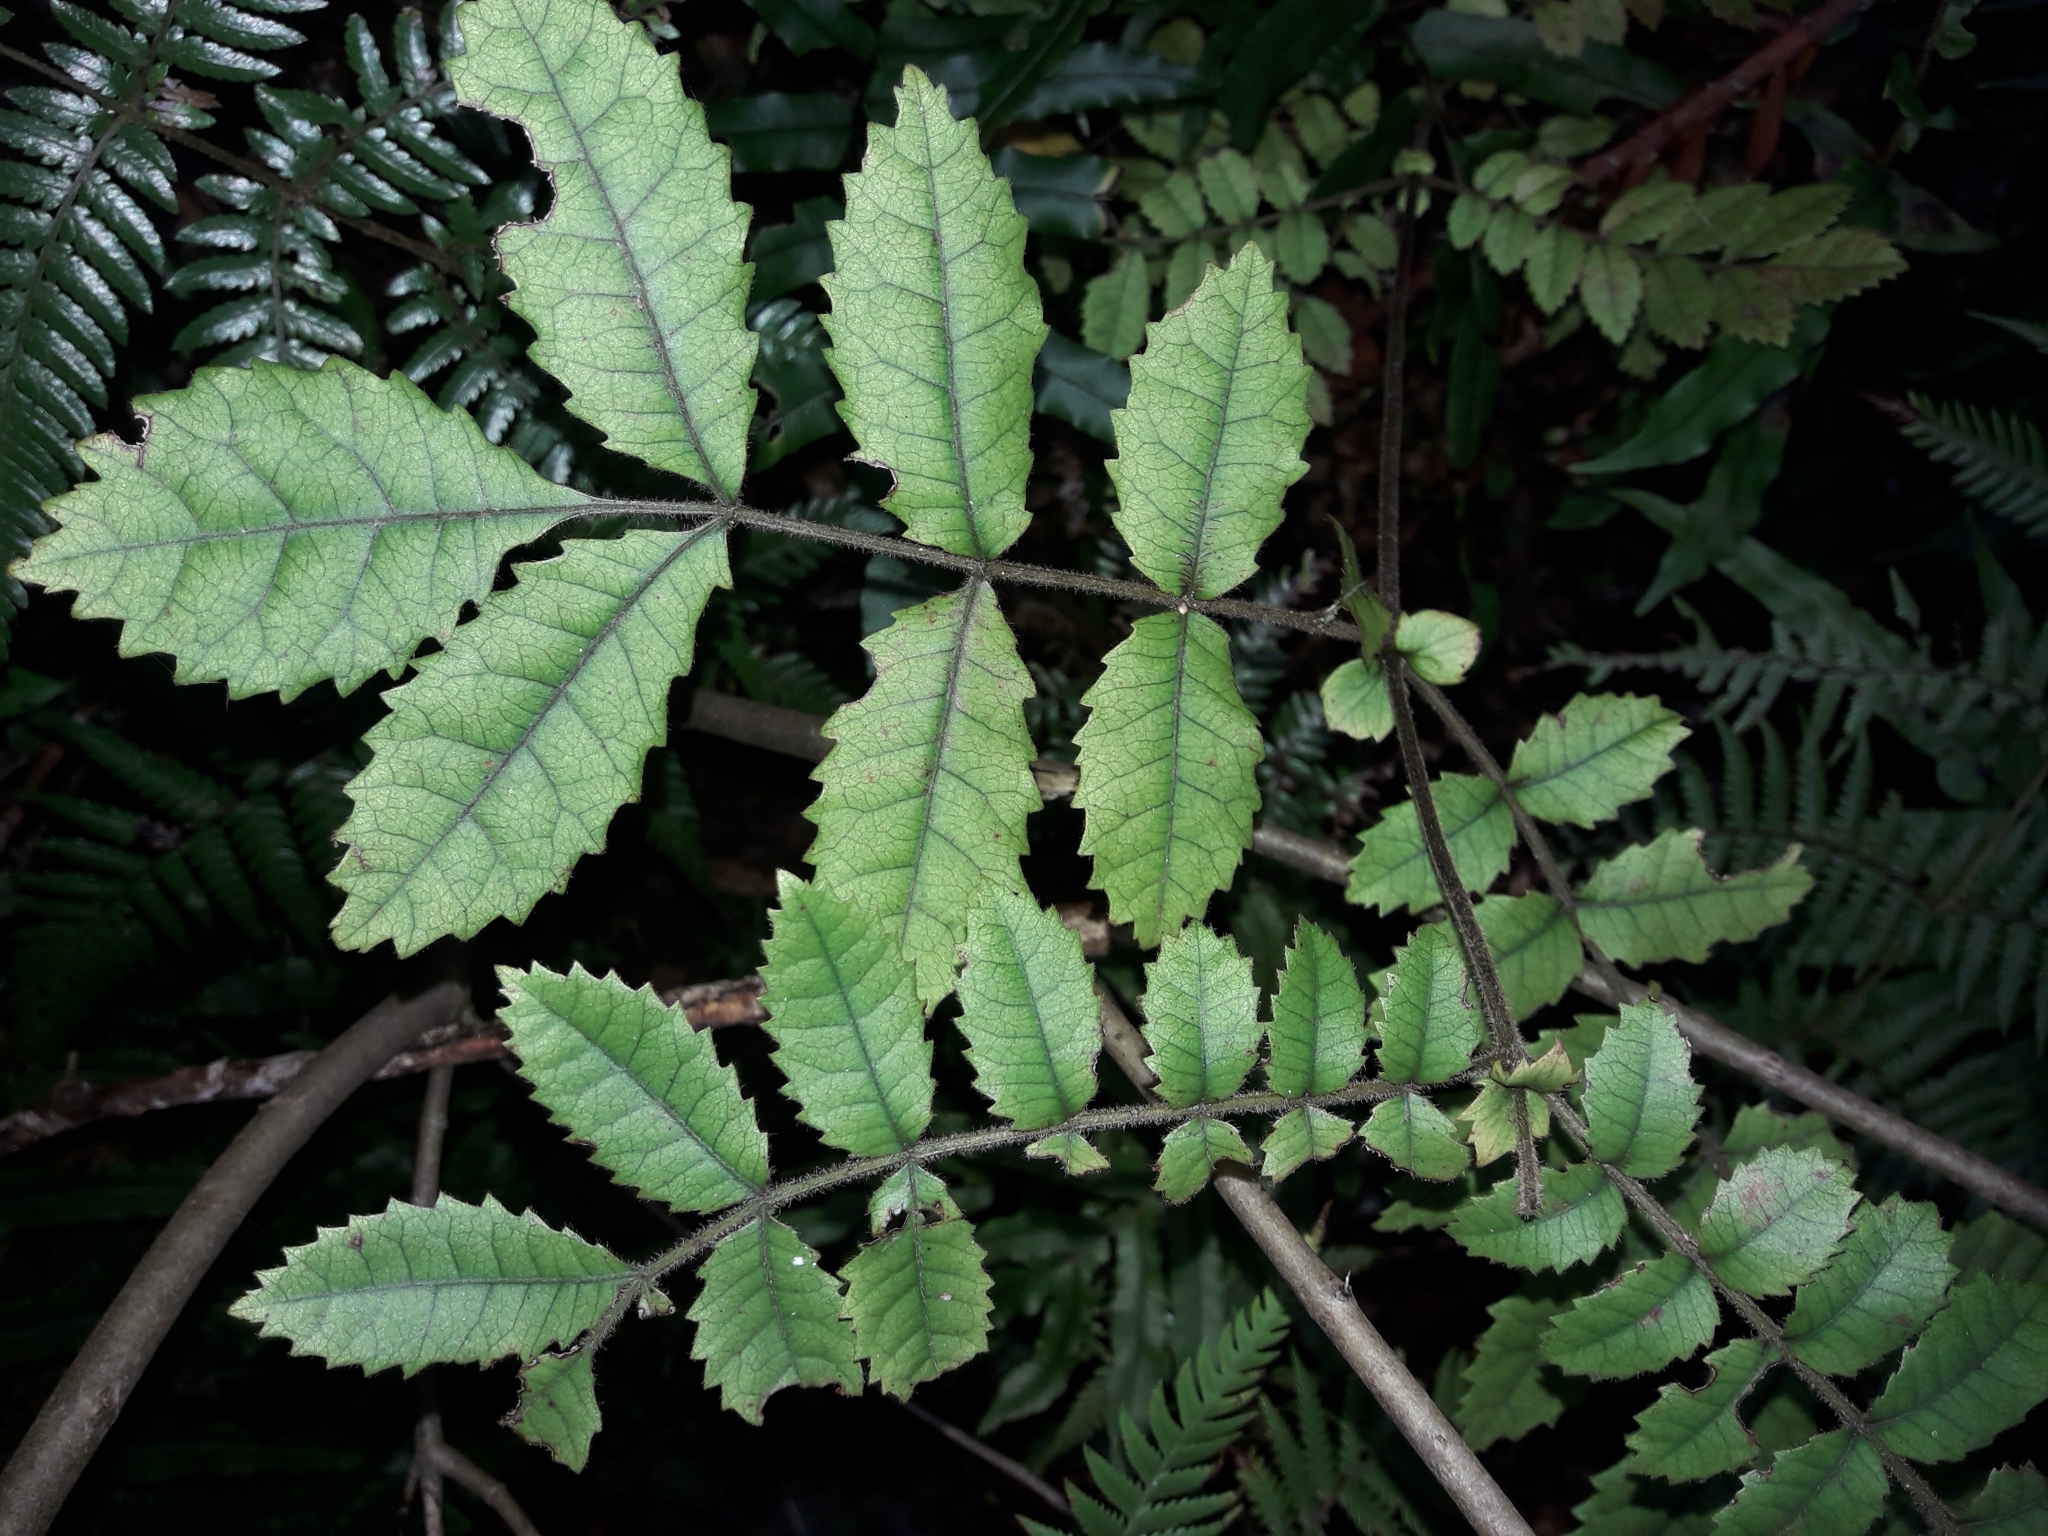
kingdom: Plantae
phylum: Tracheophyta
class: Magnoliopsida
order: Oxalidales
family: Cunoniaceae
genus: Ackama
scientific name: Ackama rosifolia
